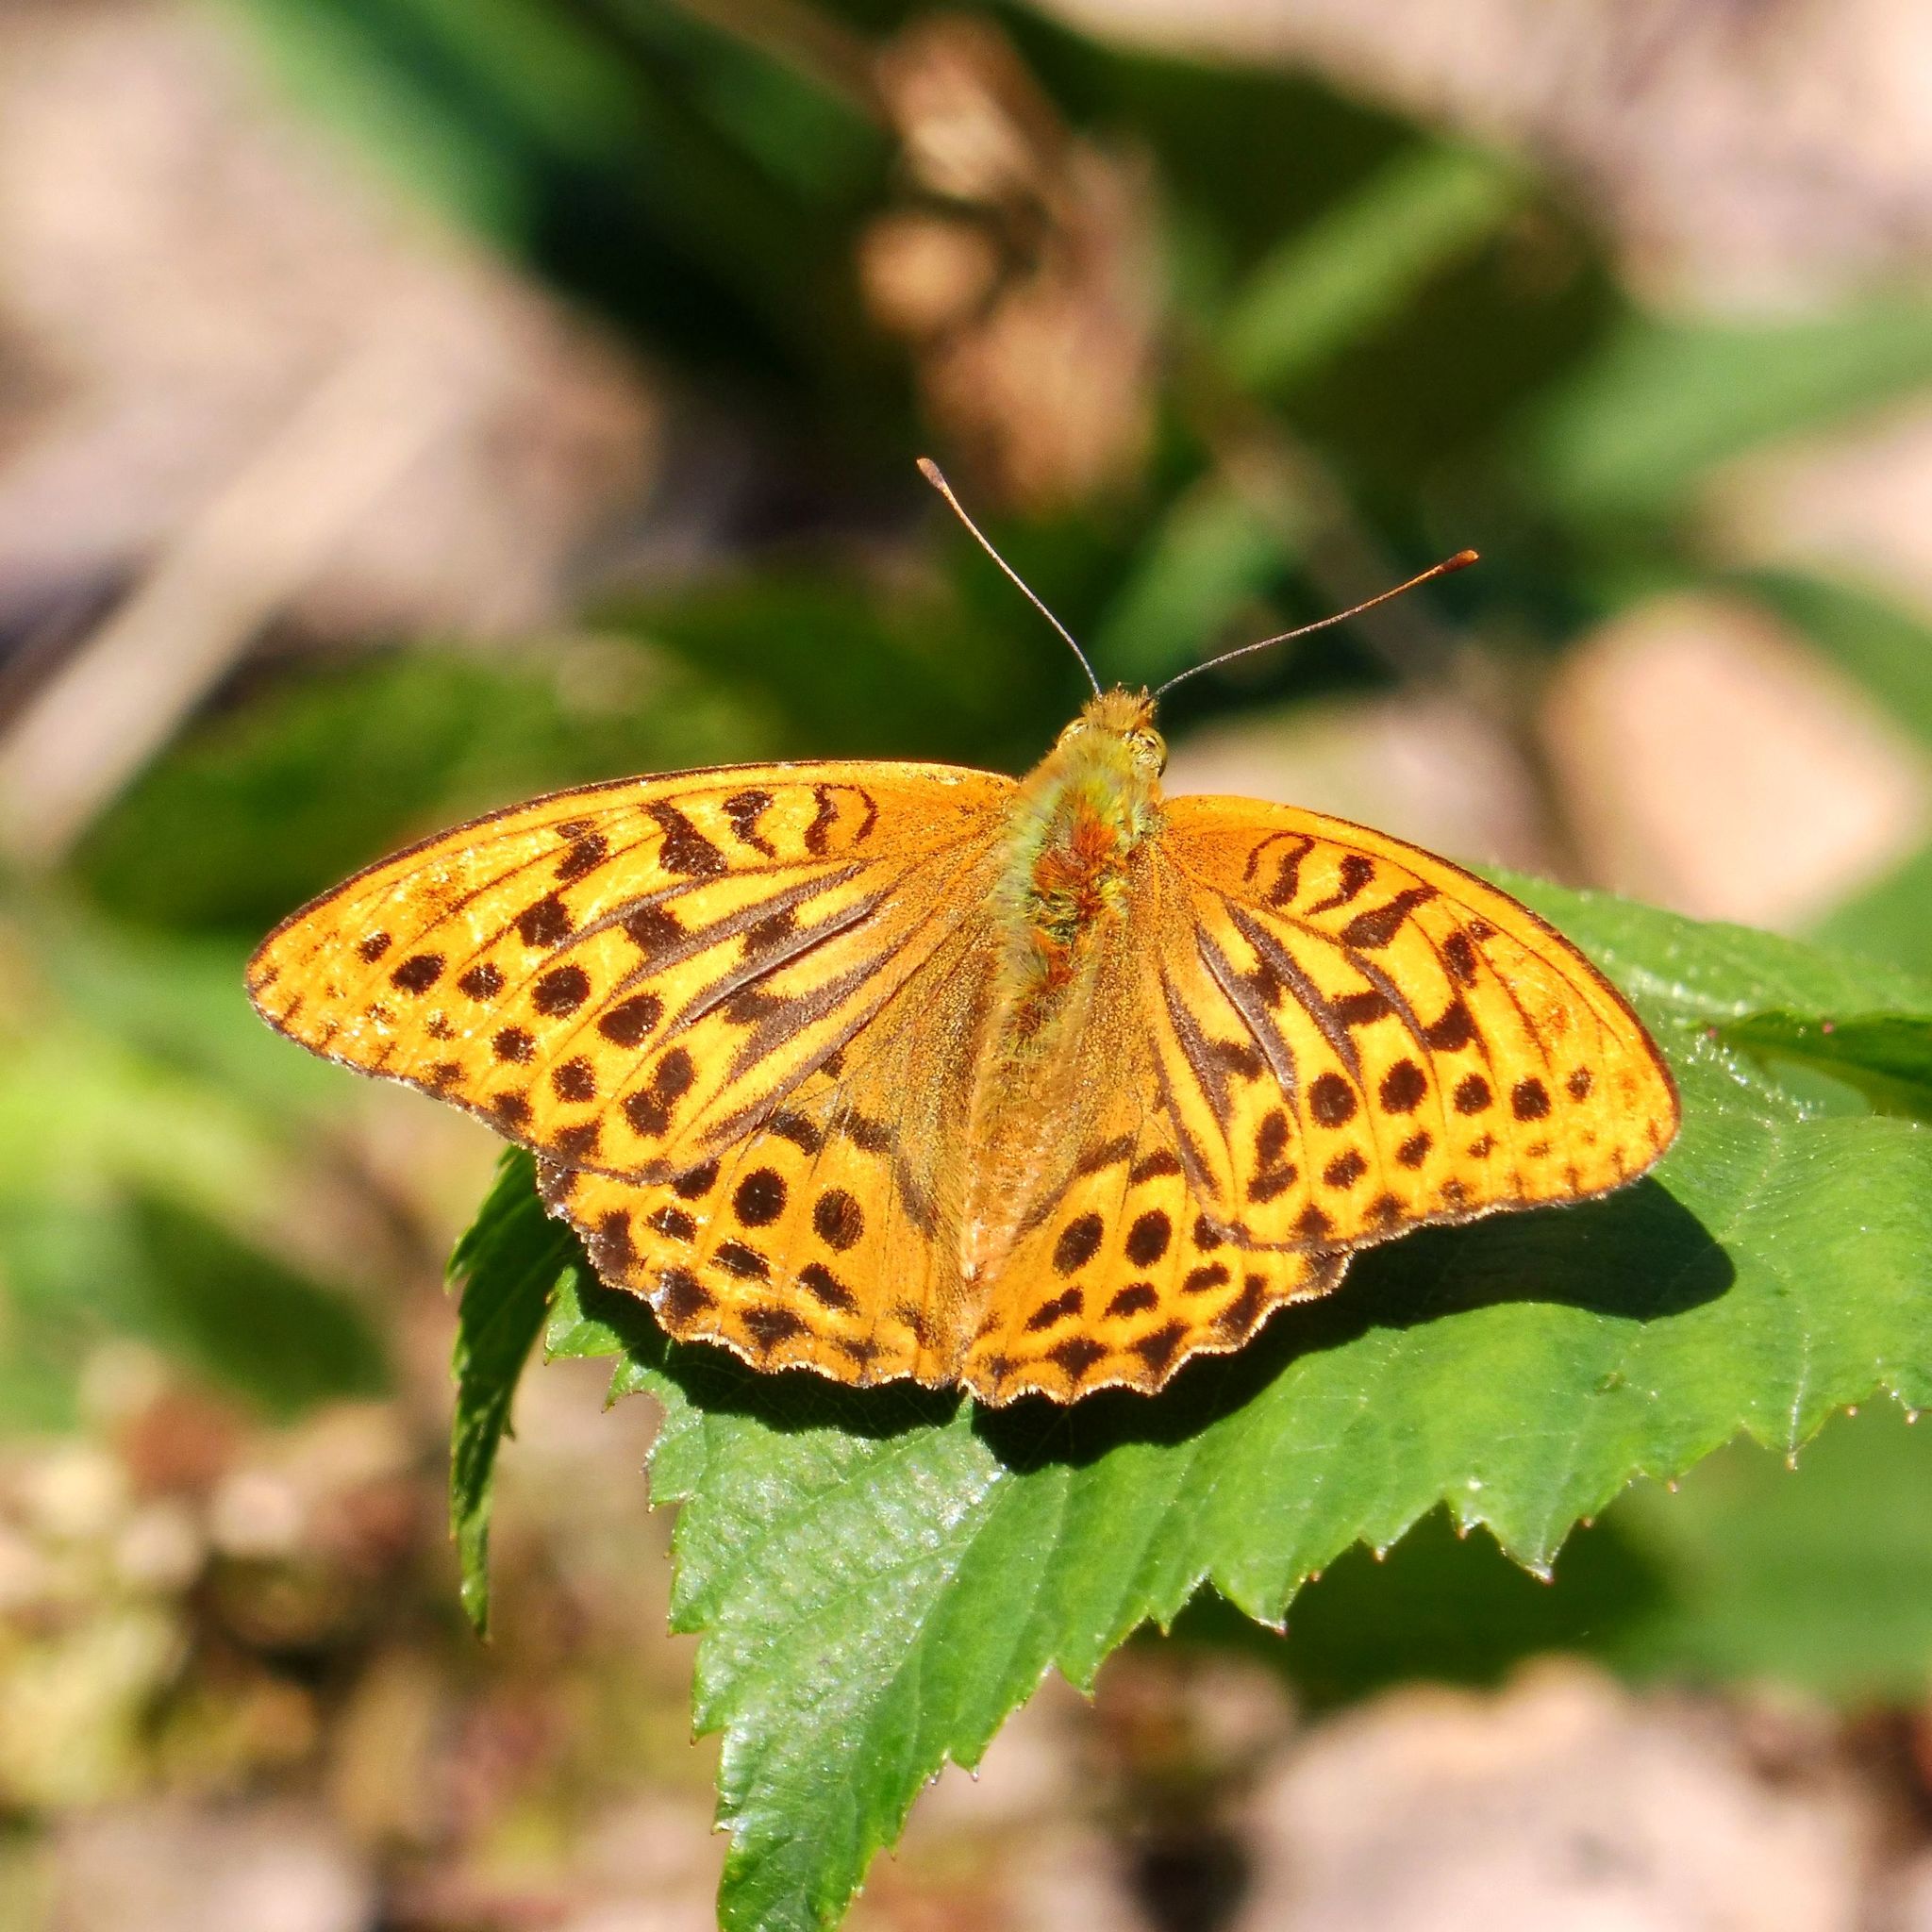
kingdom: Animalia
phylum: Arthropoda
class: Insecta
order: Lepidoptera
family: Nymphalidae
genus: Argynnis
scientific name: Argynnis paphia
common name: Silver-washed fritillary
